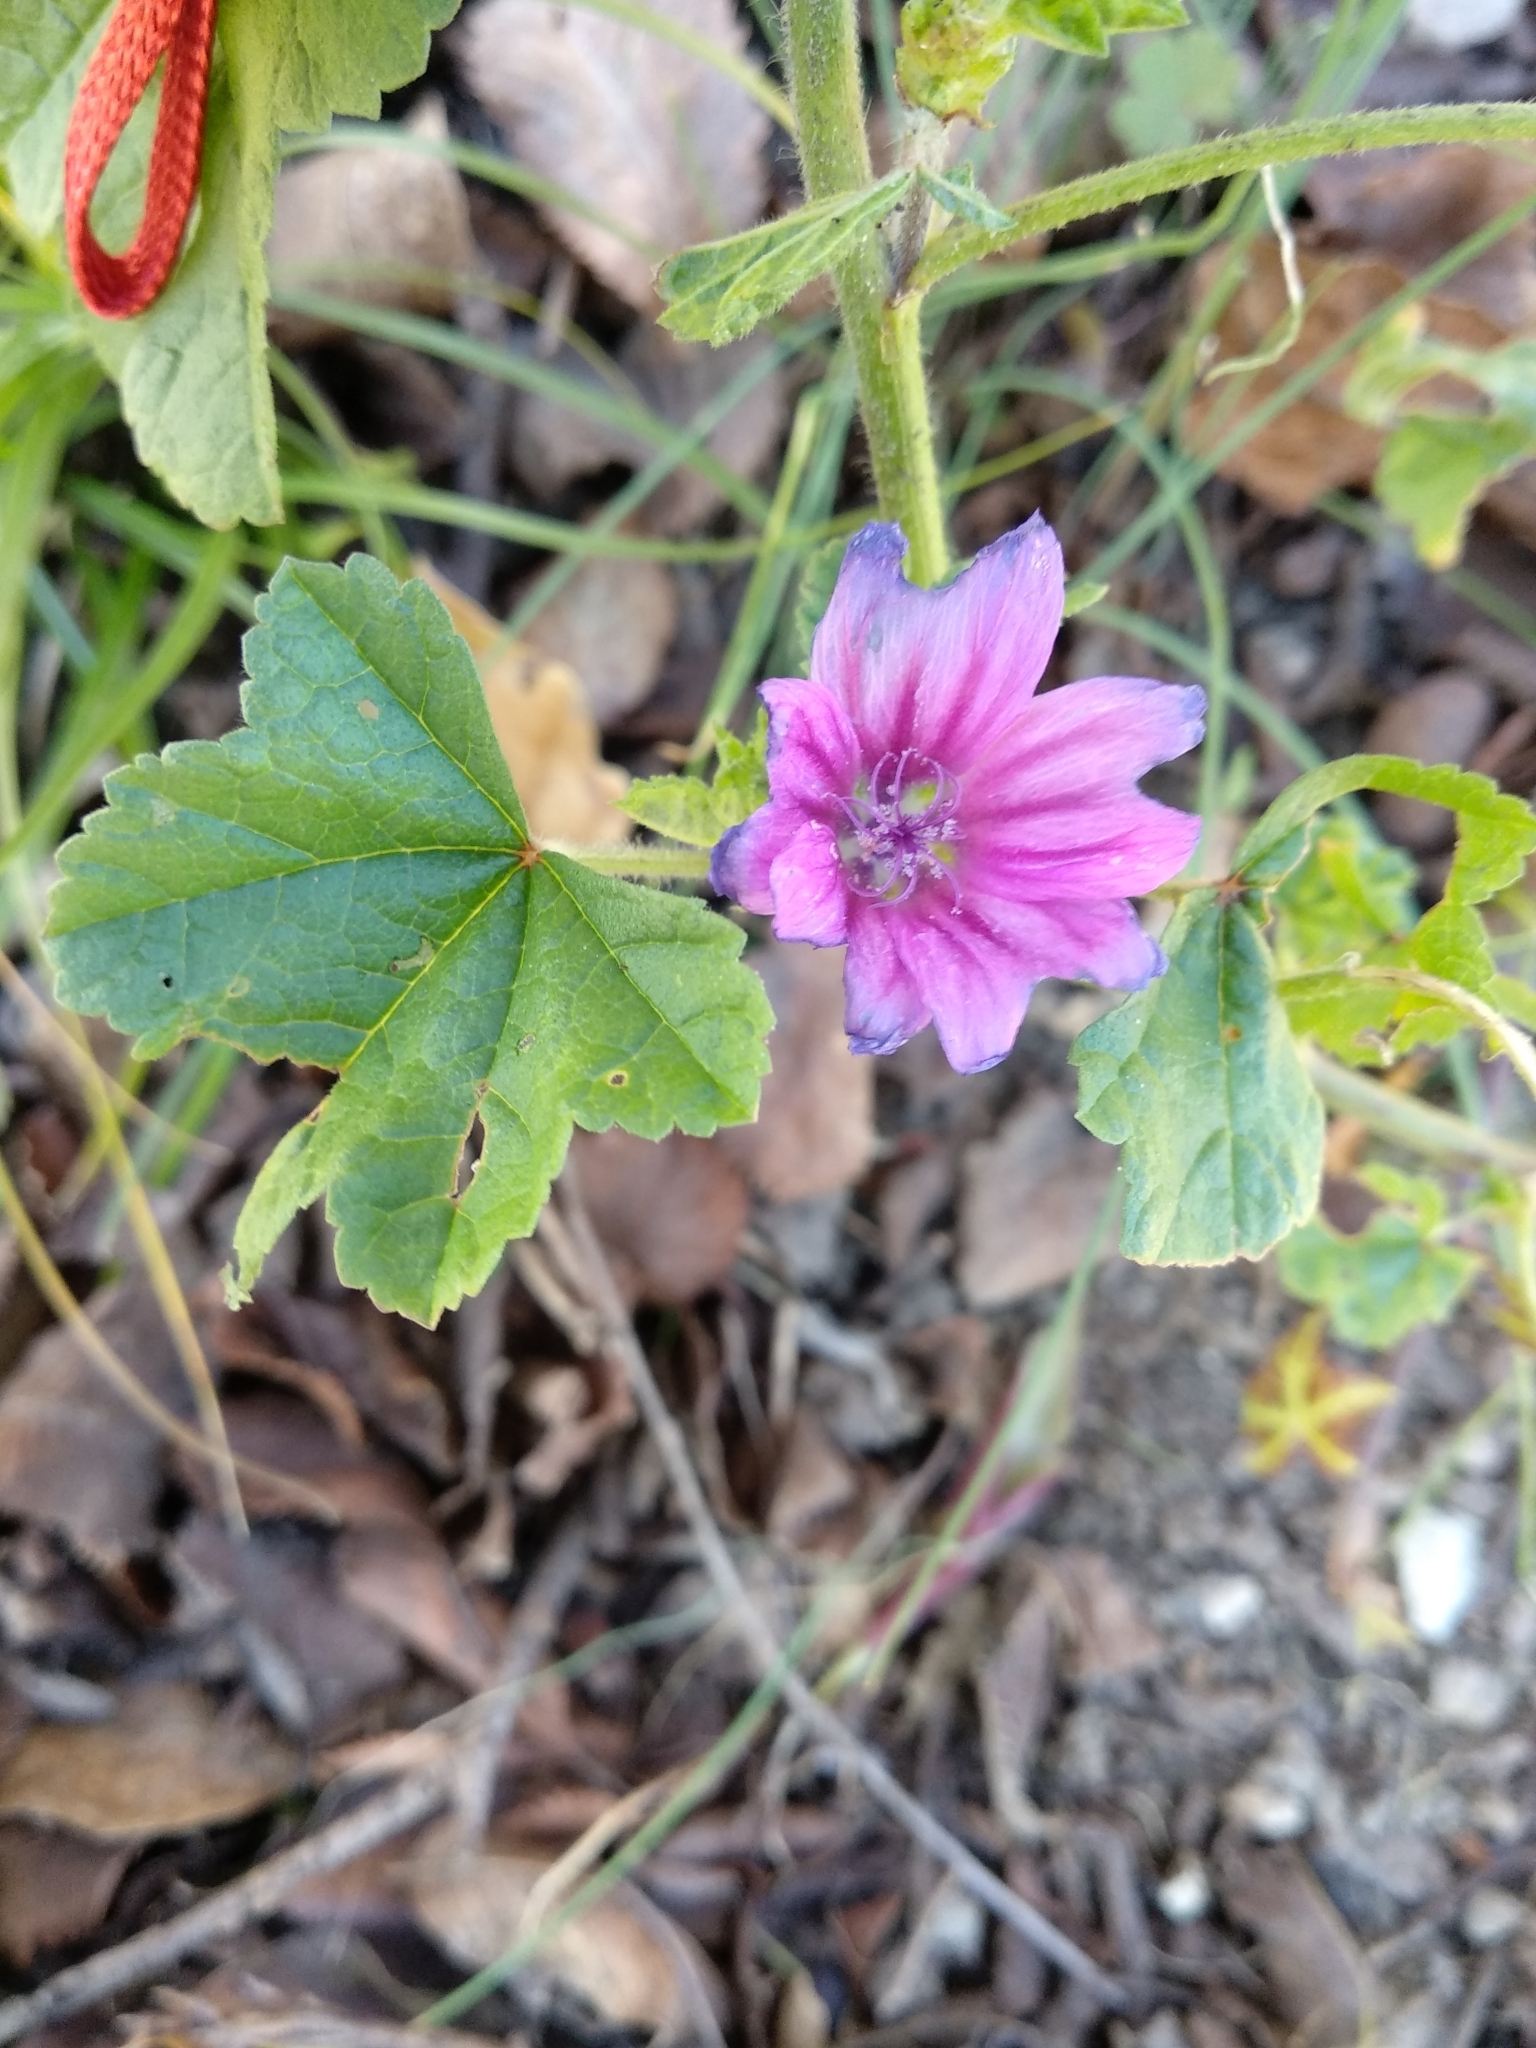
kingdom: Plantae
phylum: Tracheophyta
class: Magnoliopsida
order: Malvales
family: Malvaceae
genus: Malva
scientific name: Malva sylvestris
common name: Common mallow
